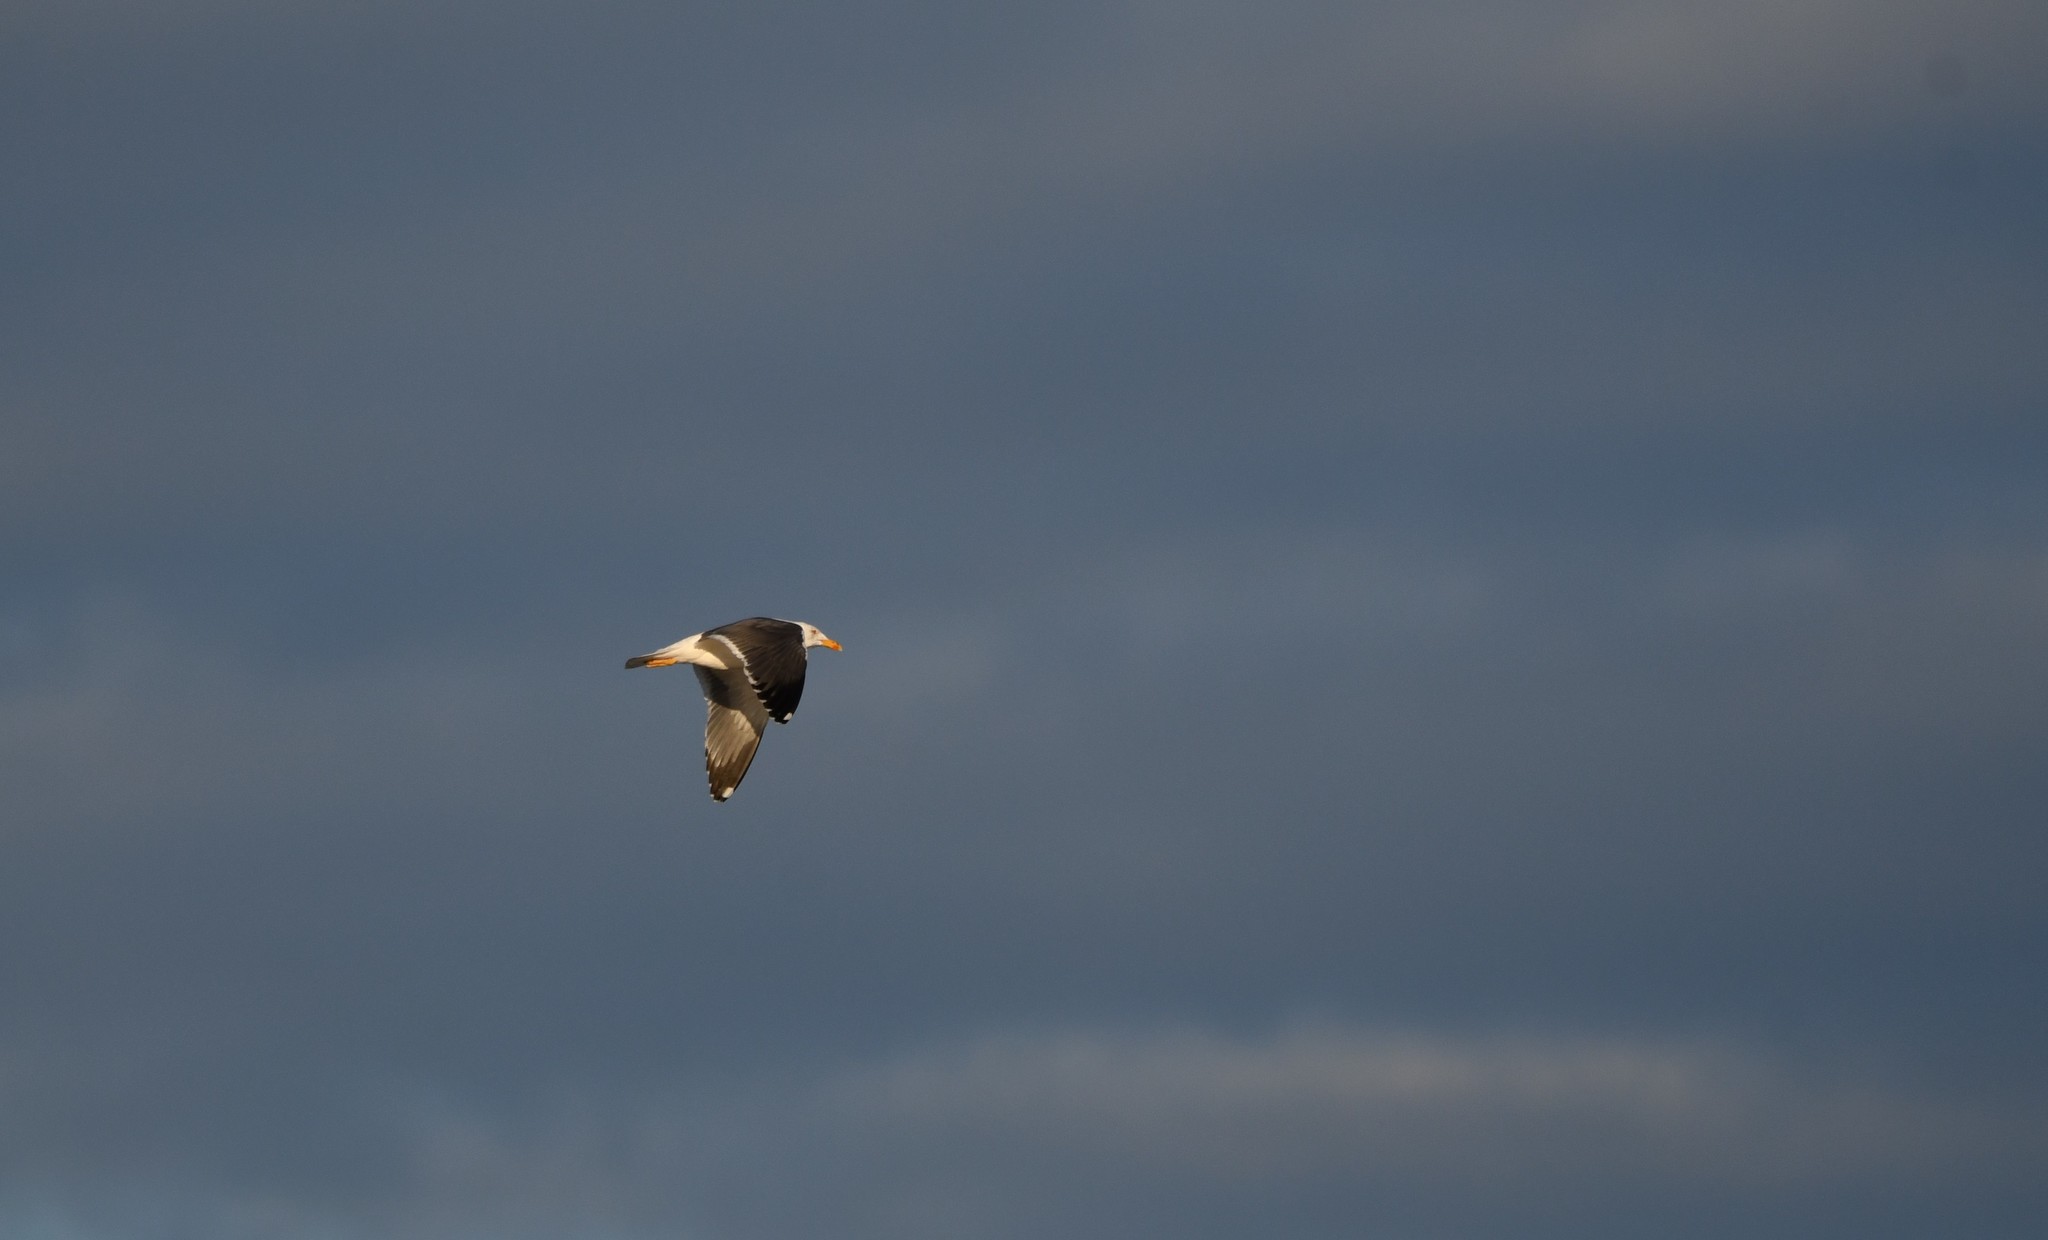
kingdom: Animalia
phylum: Chordata
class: Aves
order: Charadriiformes
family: Laridae
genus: Larus
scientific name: Larus fuscus
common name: Lesser black-backed gull
